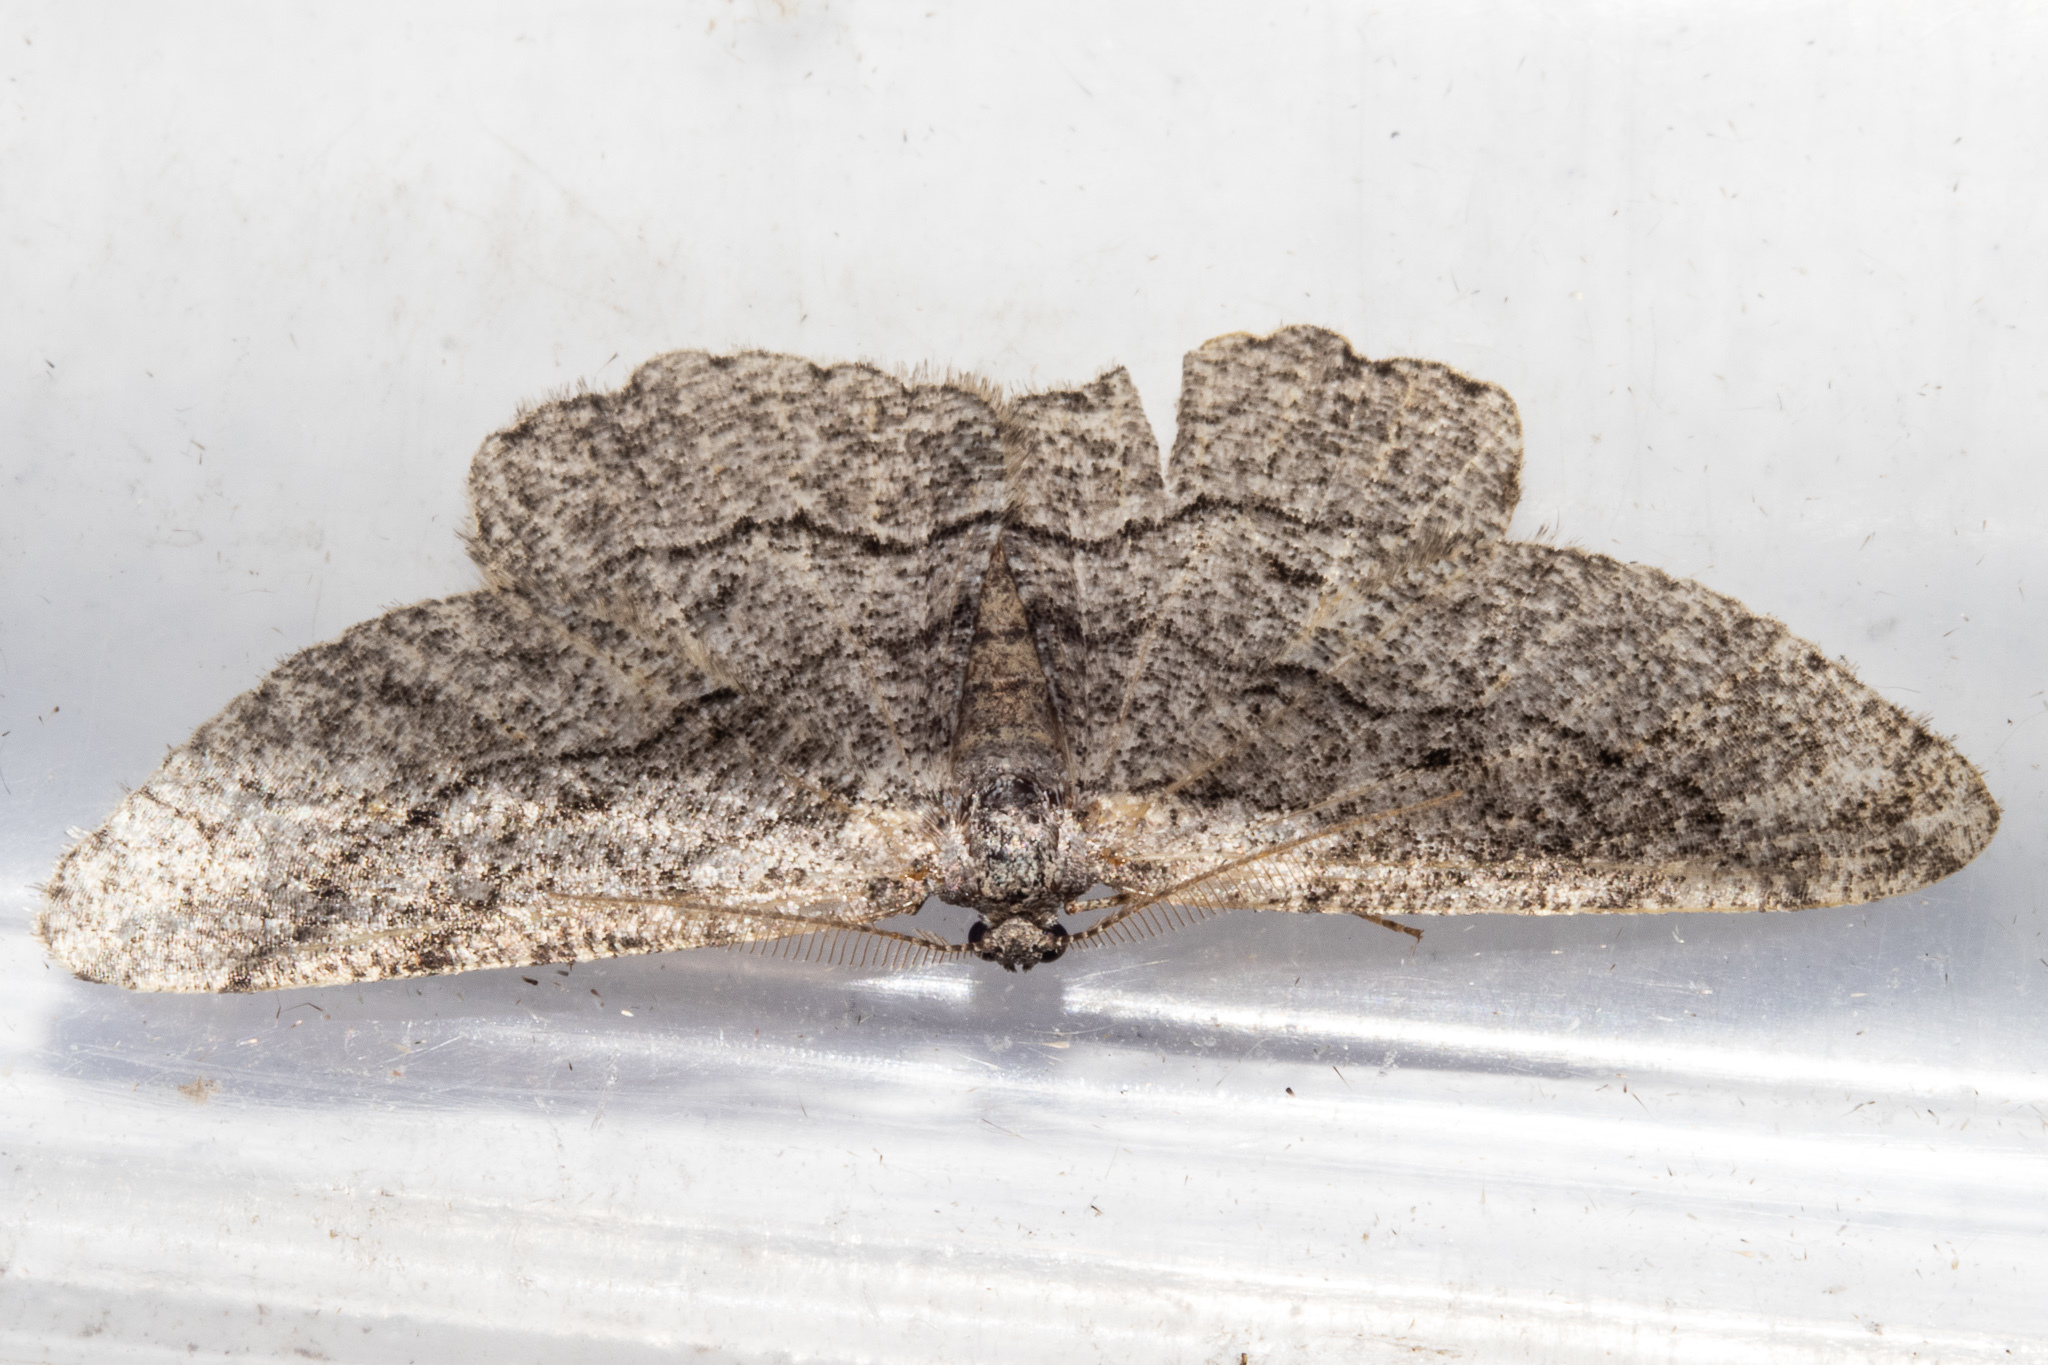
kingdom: Animalia
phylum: Arthropoda
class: Insecta
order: Lepidoptera
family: Geometridae
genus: Zermizinga
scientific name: Zermizinga indocilisaria
